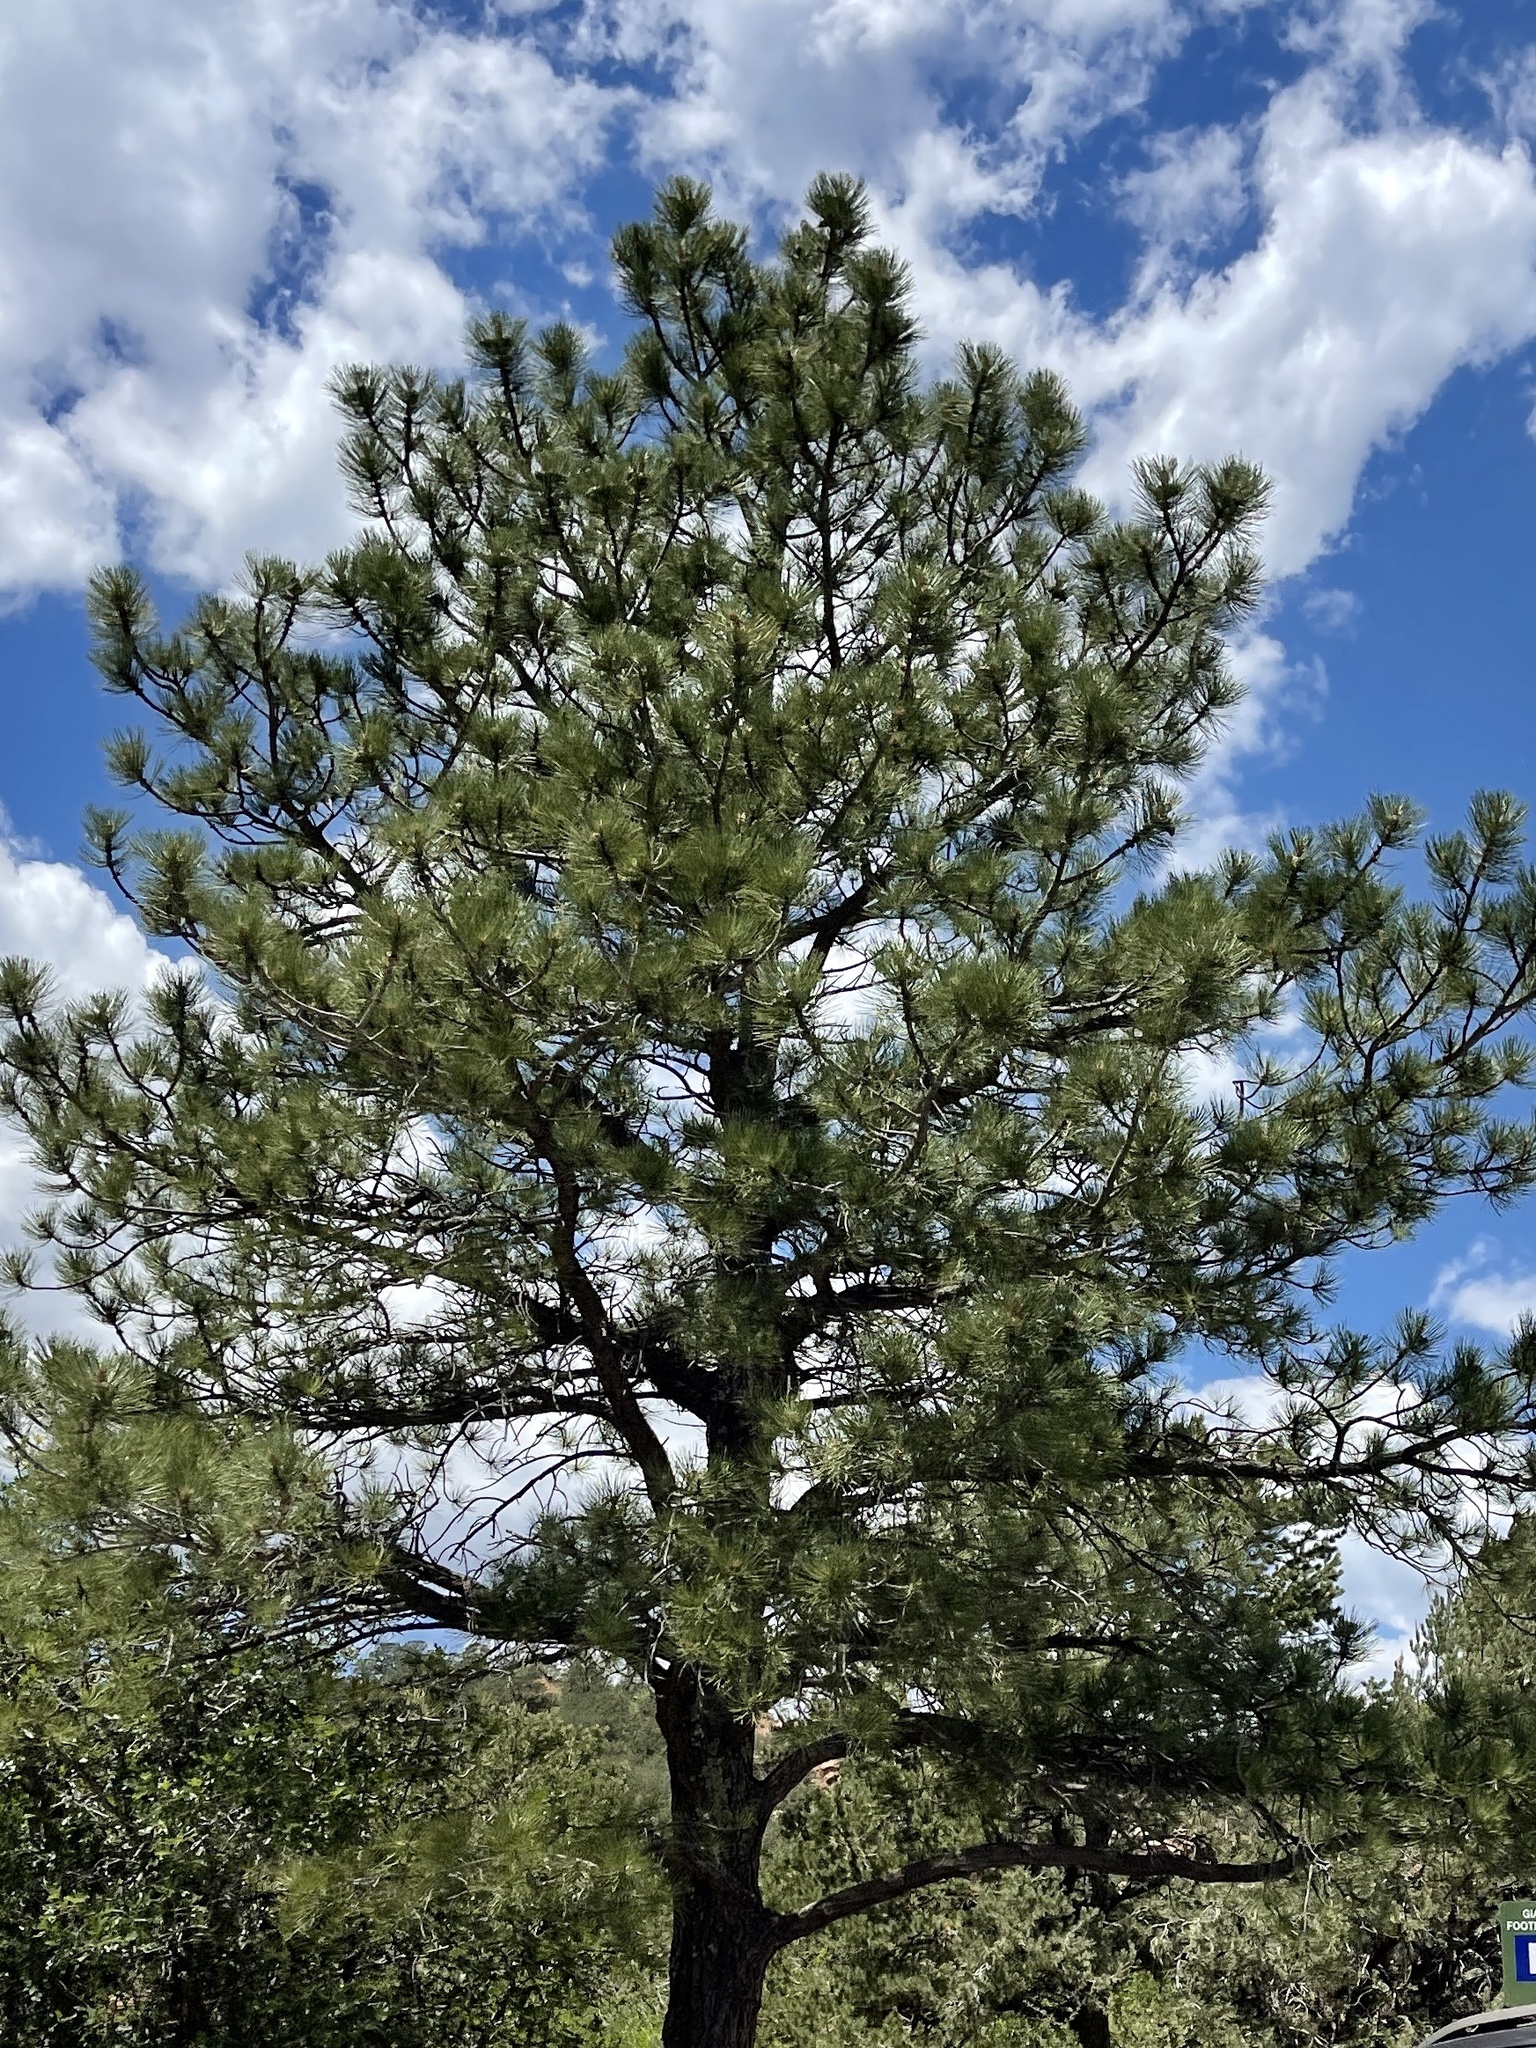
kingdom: Plantae
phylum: Tracheophyta
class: Pinopsida
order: Pinales
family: Pinaceae
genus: Pinus
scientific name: Pinus ponderosa
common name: Western yellow-pine
